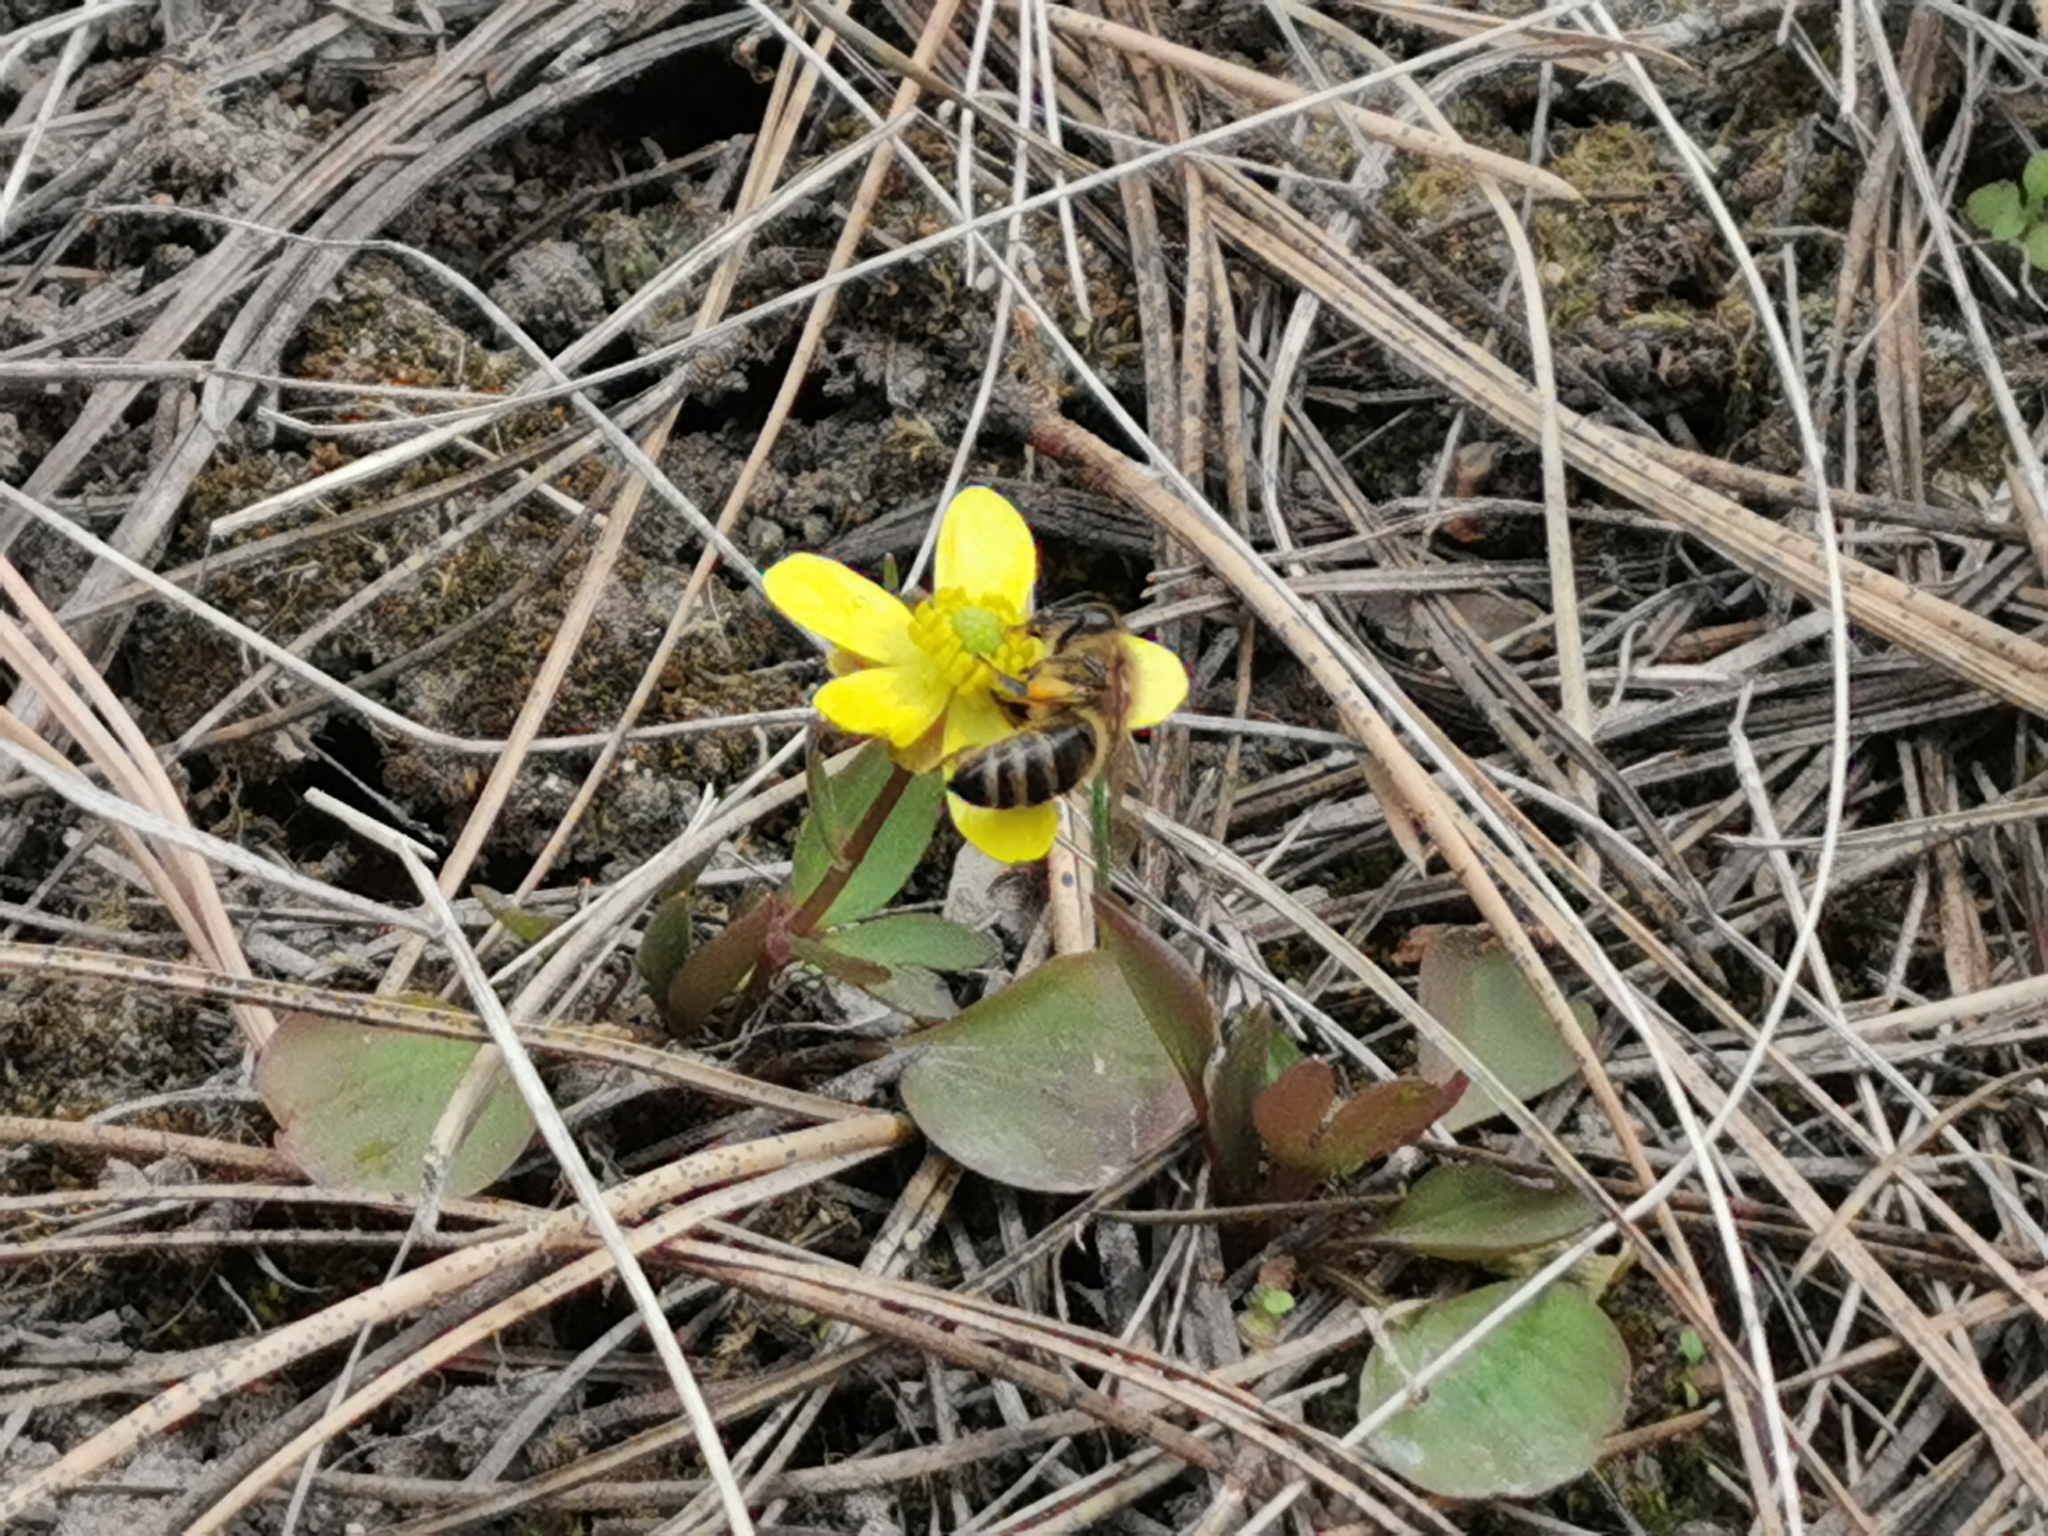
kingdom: Animalia
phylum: Arthropoda
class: Insecta
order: Hymenoptera
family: Apidae
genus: Apis
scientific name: Apis mellifera
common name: Honey bee
